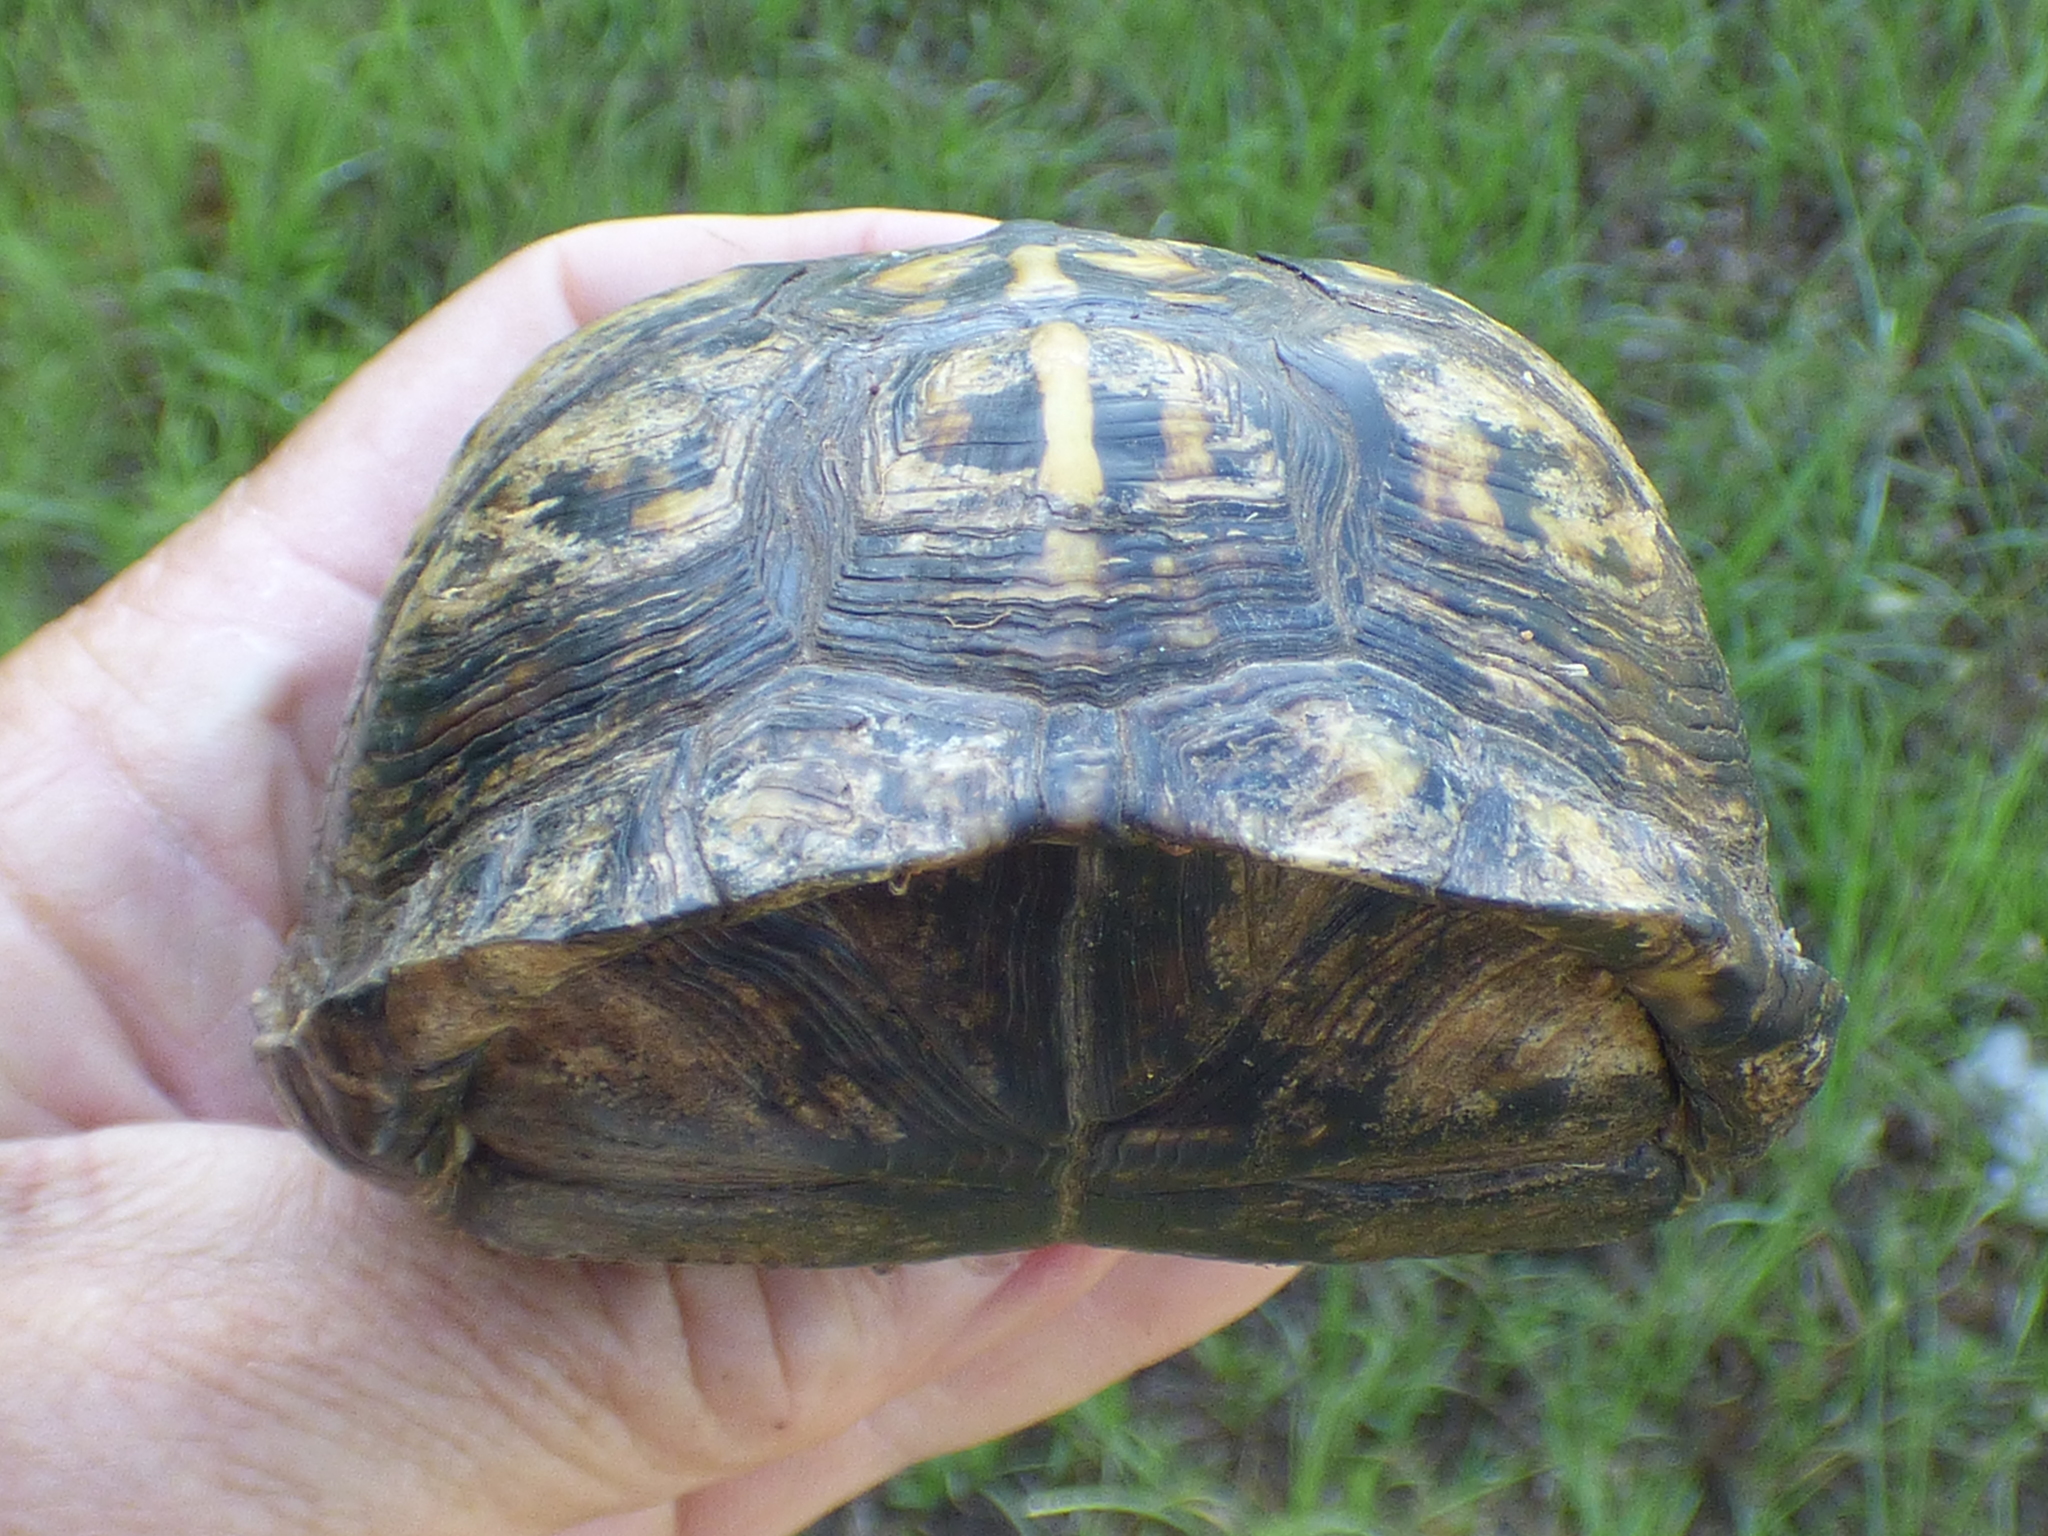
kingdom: Animalia
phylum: Chordata
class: Testudines
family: Emydidae
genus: Terrapene
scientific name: Terrapene carolina
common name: Common box turtle
